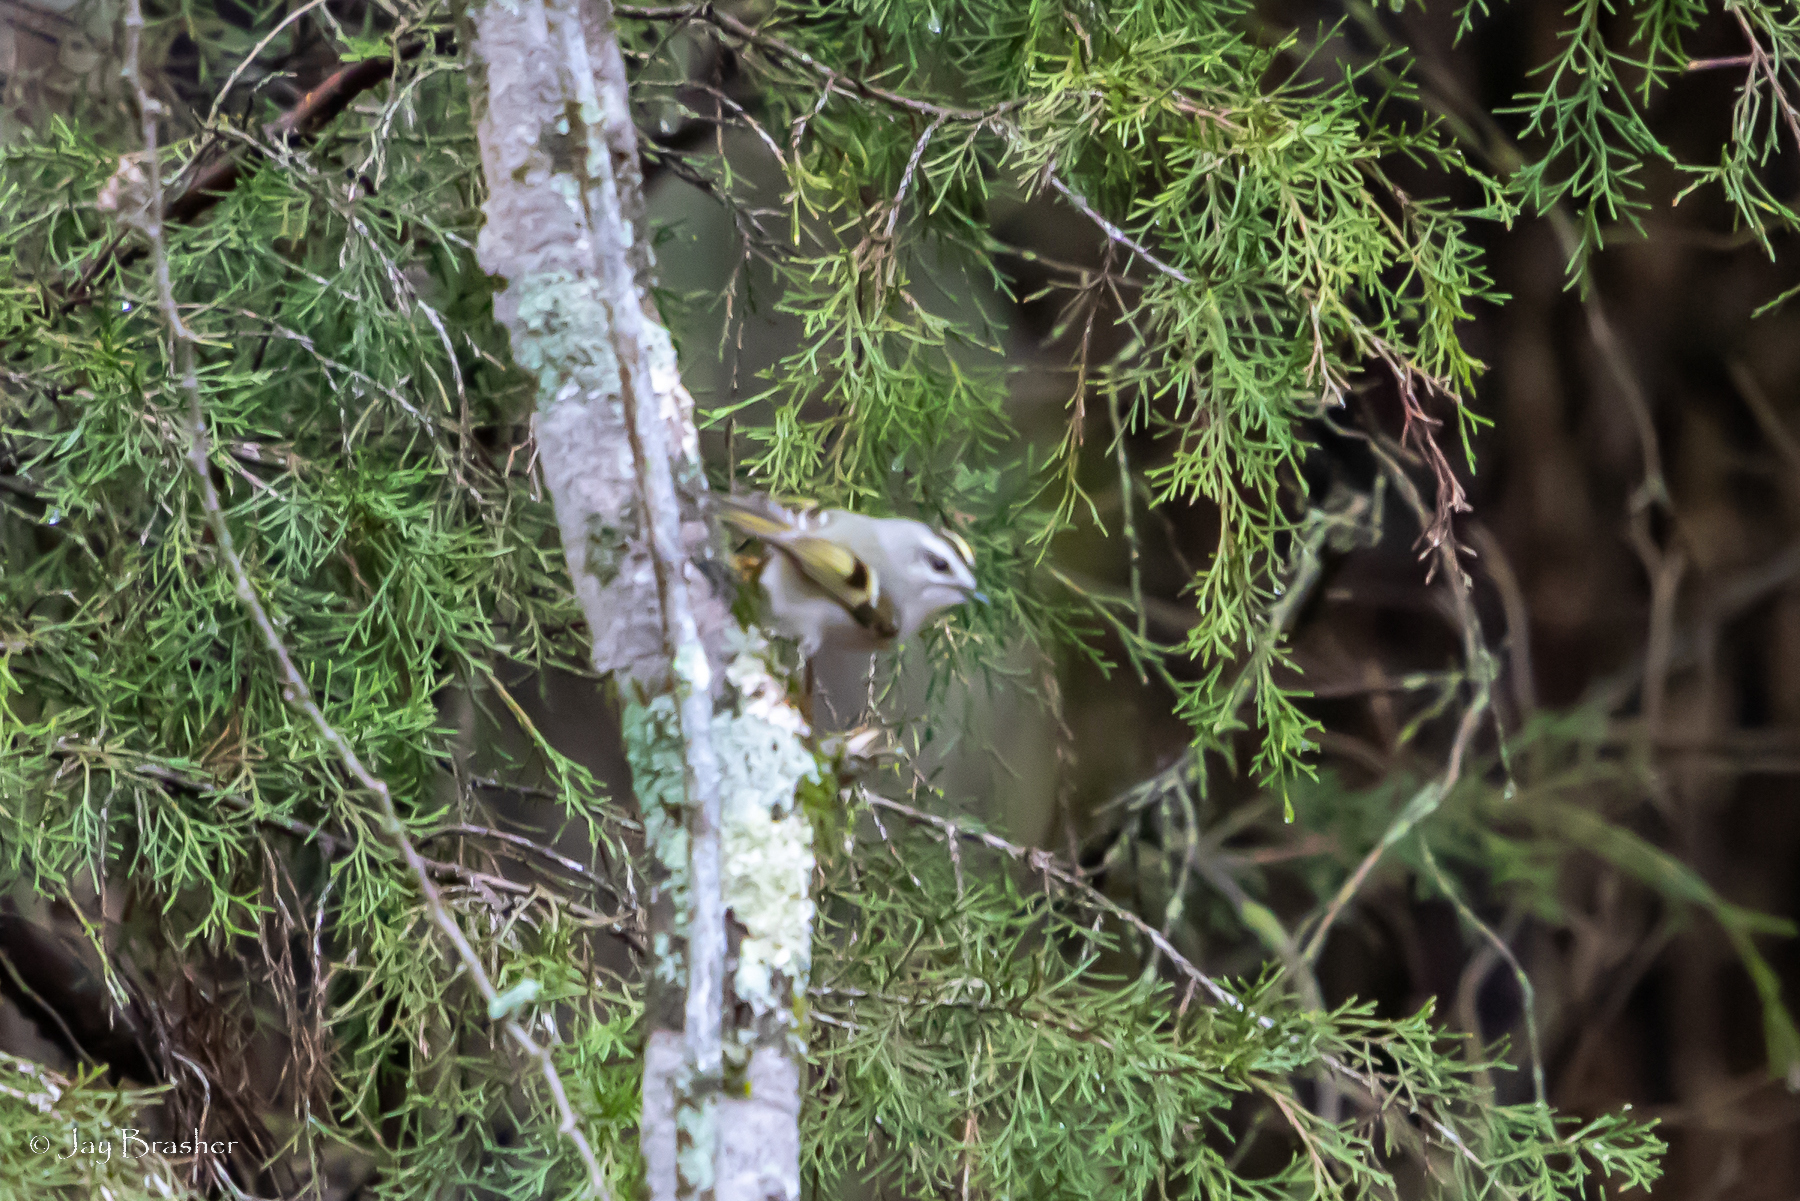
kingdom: Animalia
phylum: Chordata
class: Aves
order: Passeriformes
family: Regulidae
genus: Regulus
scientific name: Regulus satrapa
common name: Golden-crowned kinglet
